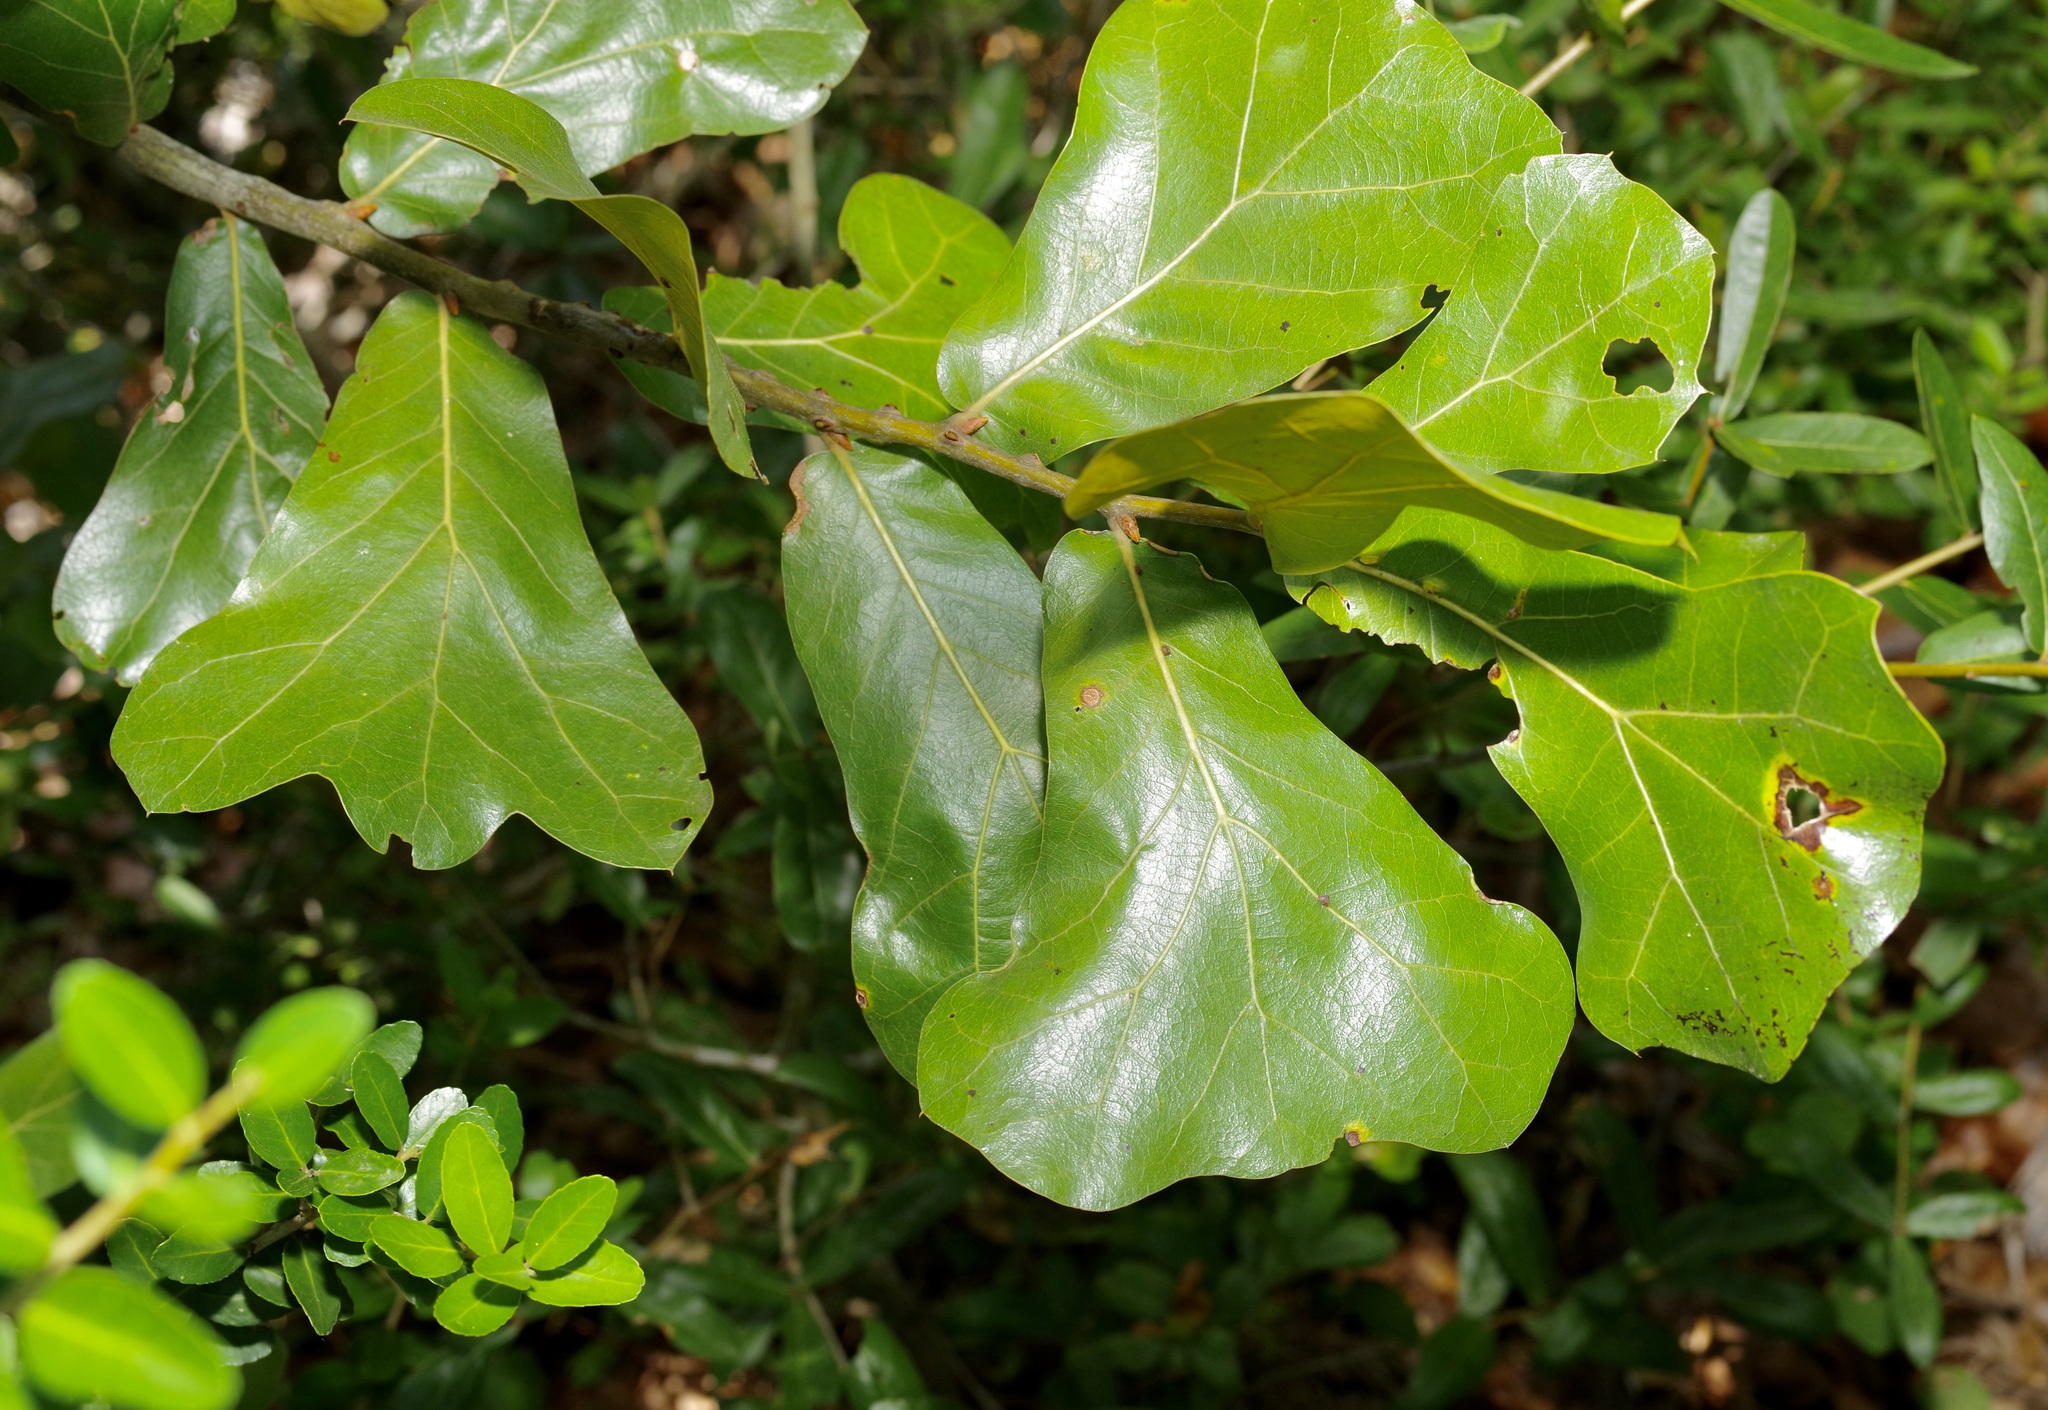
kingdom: Plantae
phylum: Tracheophyta
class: Magnoliopsida
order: Fagales
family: Fagaceae
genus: Quercus
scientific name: Quercus marilandica
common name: Blackjack oak
